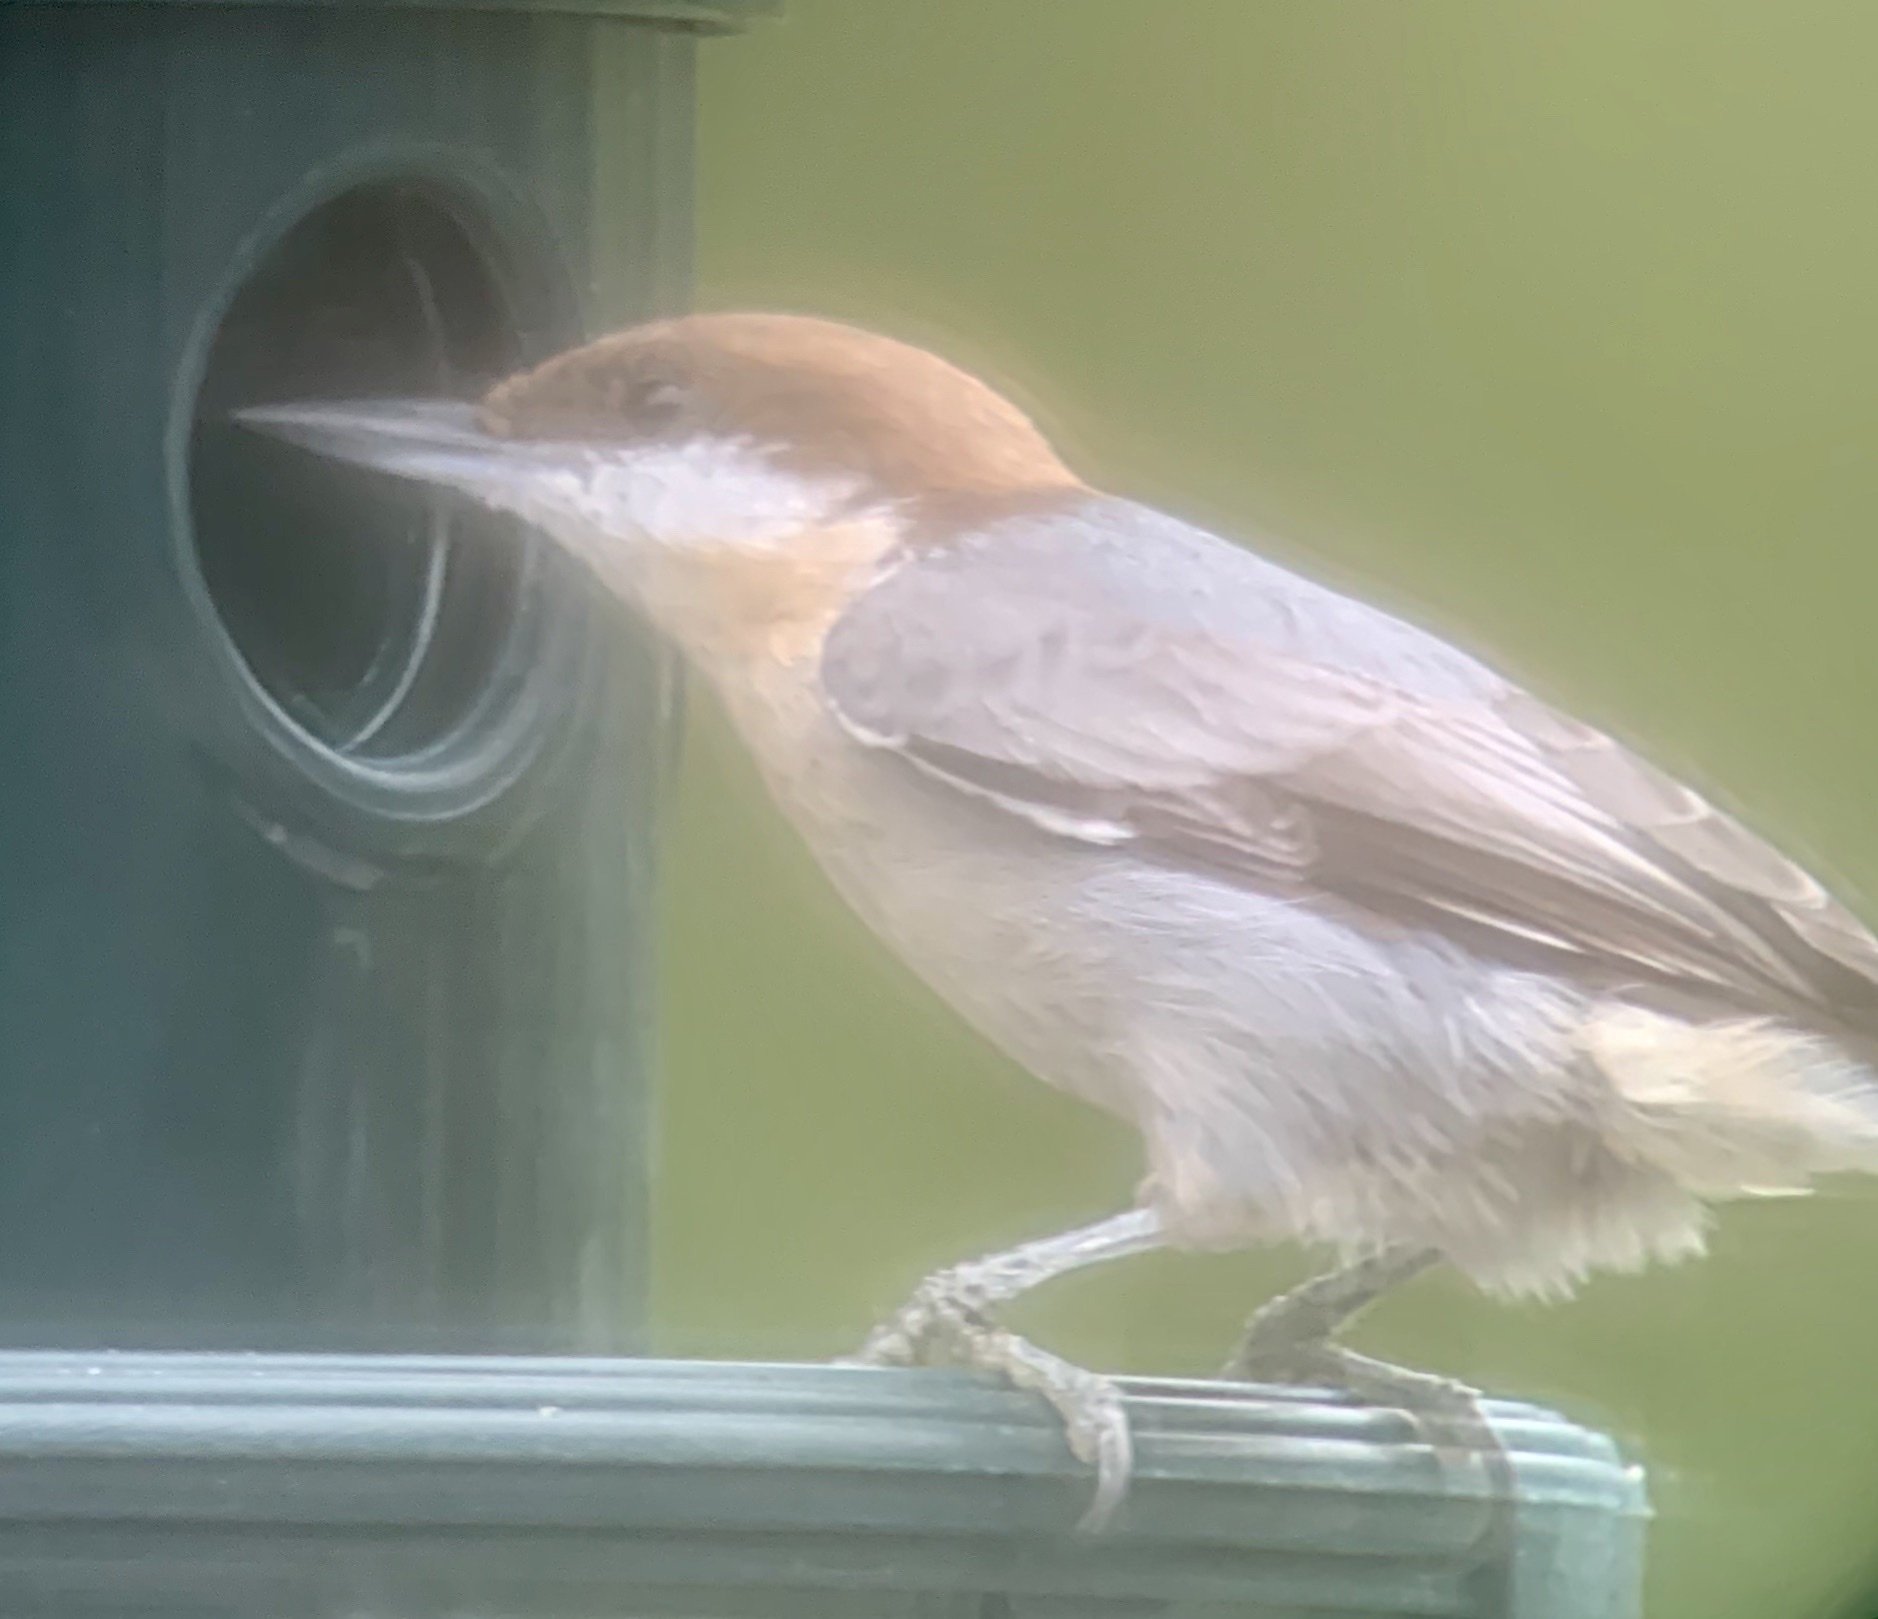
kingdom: Animalia
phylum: Chordata
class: Aves
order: Passeriformes
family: Sittidae
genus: Sitta
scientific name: Sitta pusilla
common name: Brown-headed nuthatch
